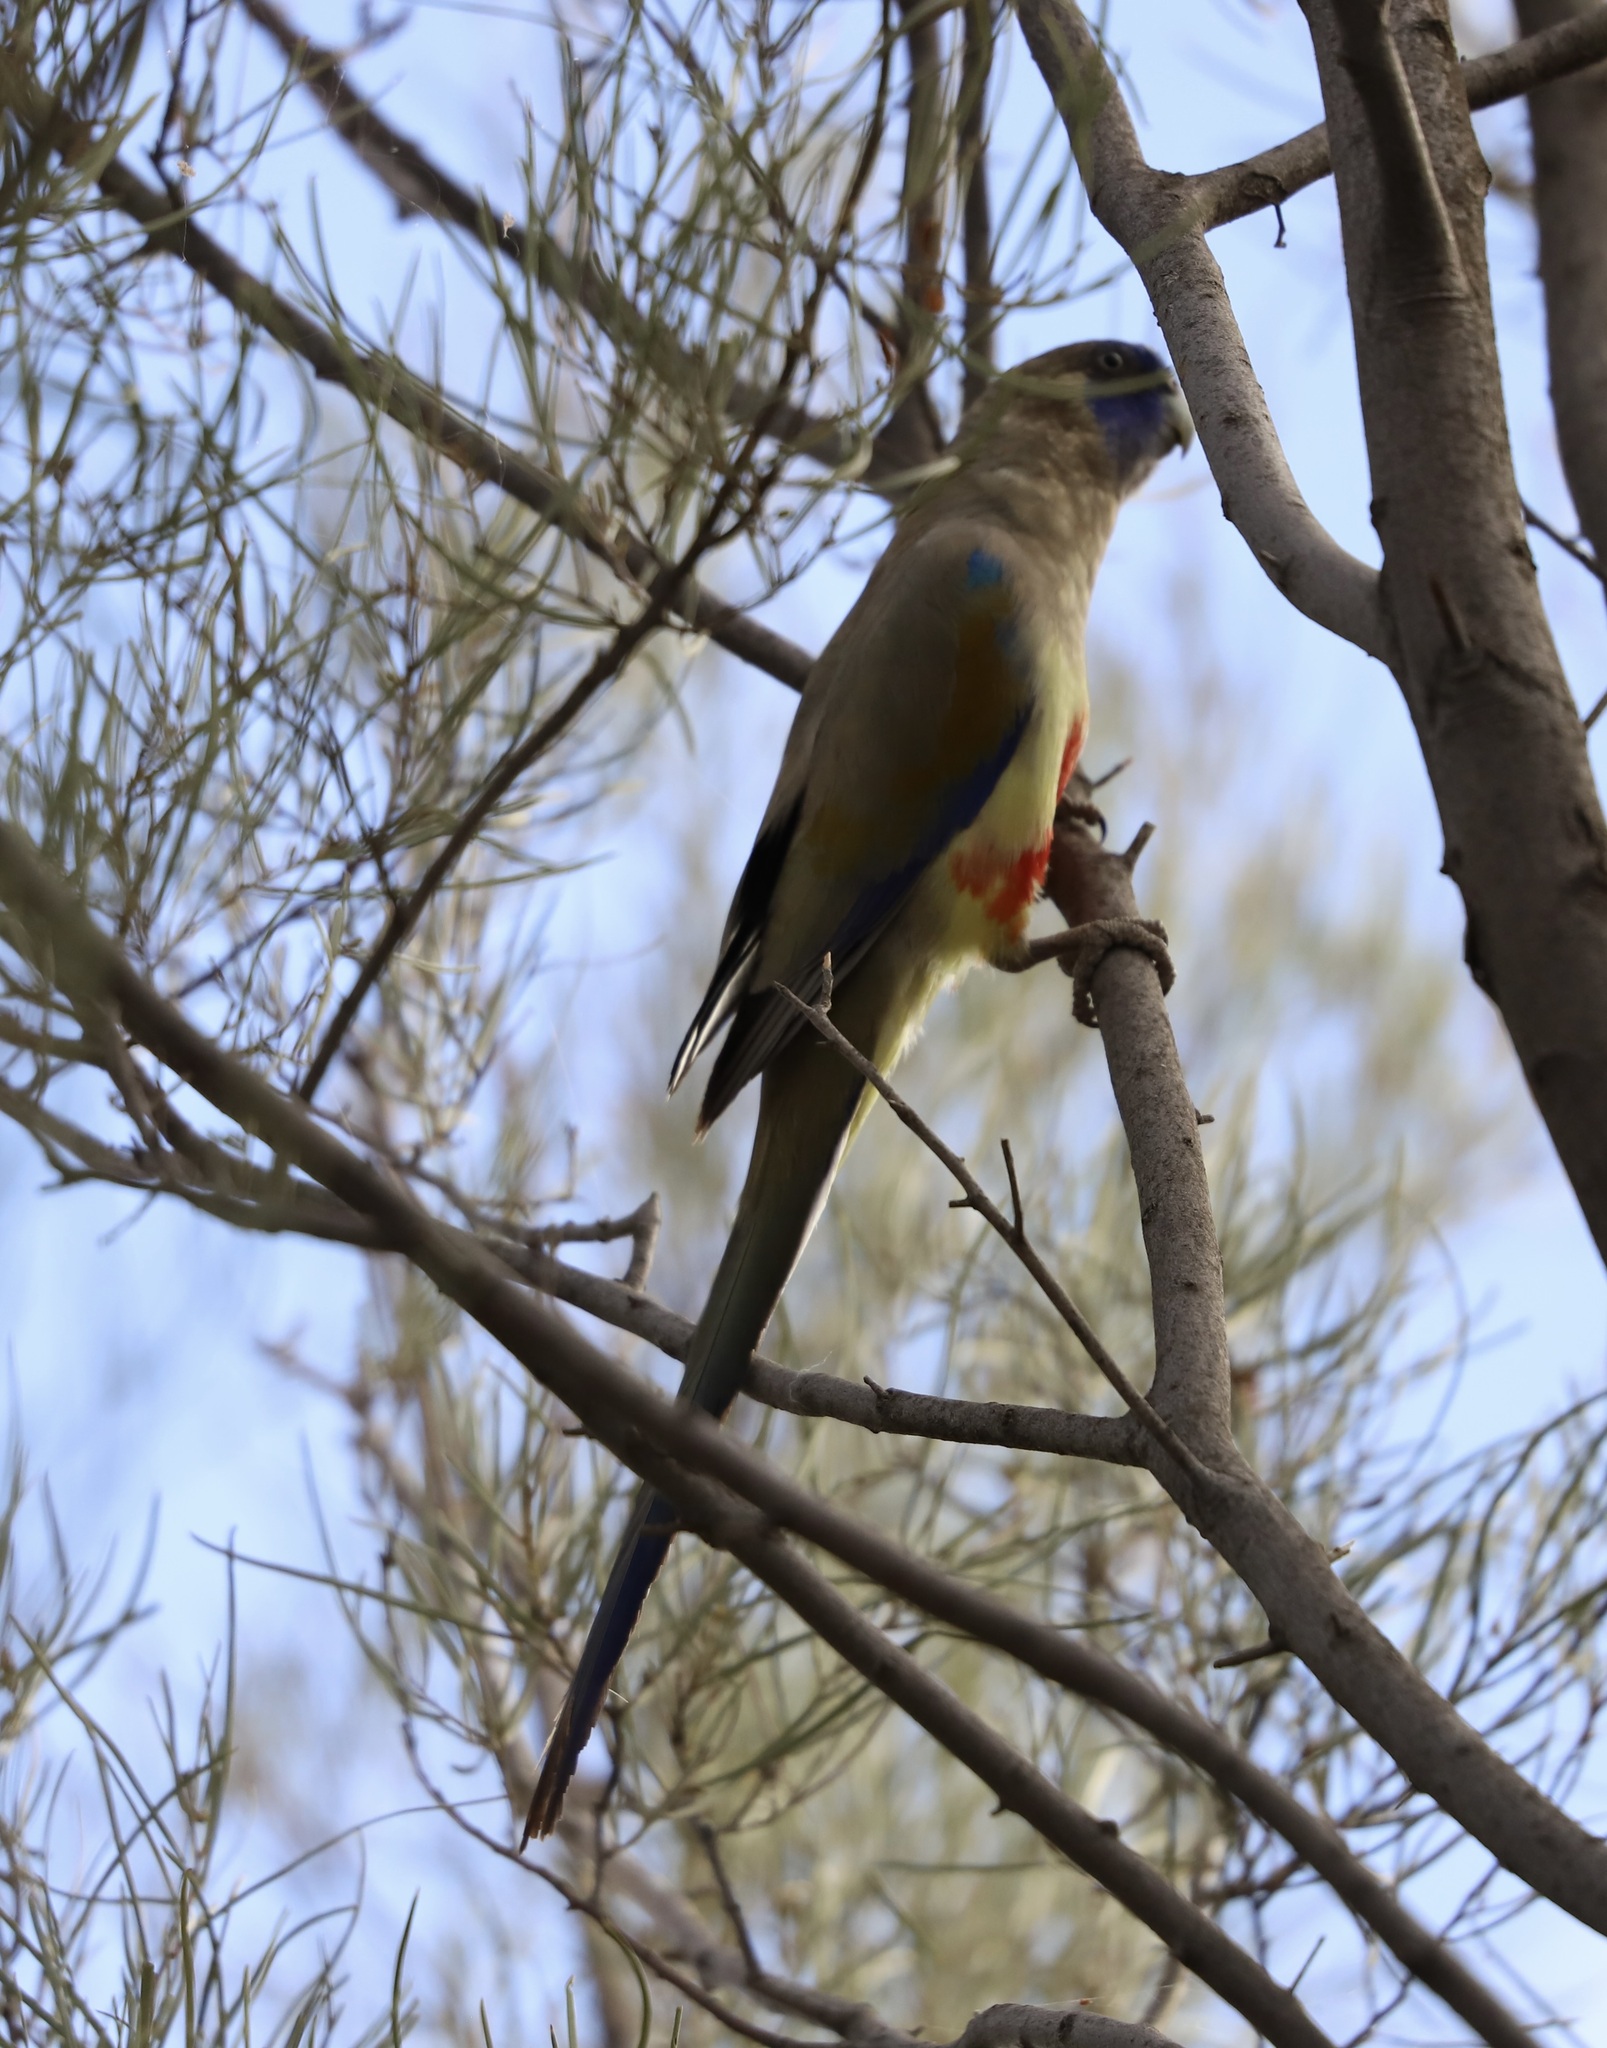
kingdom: Animalia
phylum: Chordata
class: Aves
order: Psittaciformes
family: Psittacidae
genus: Northiella
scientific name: Northiella haematogaster
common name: Bluebonnet
